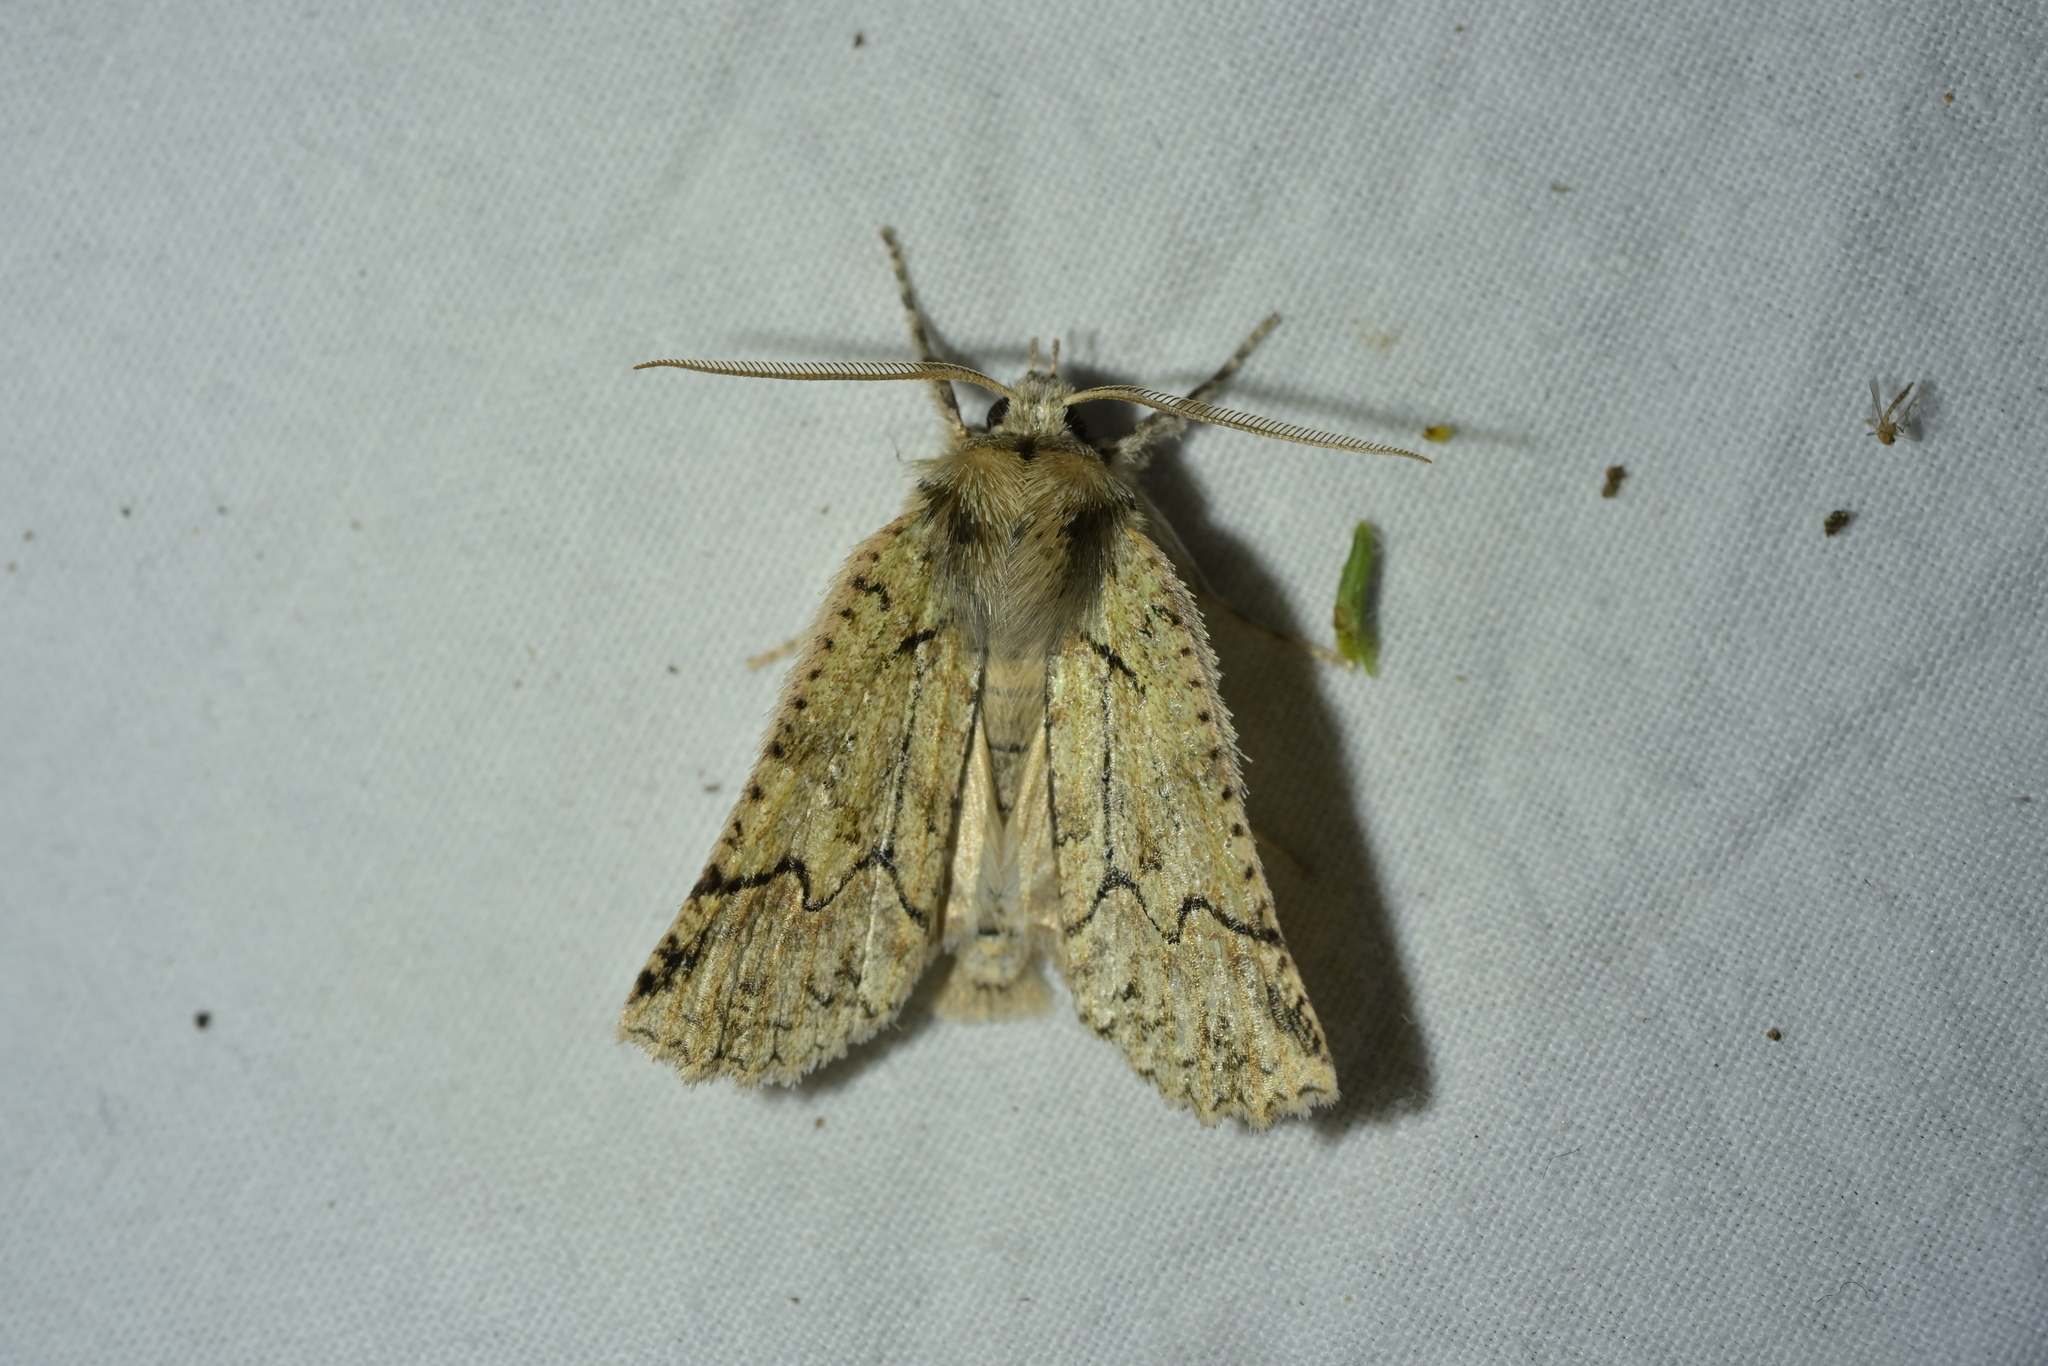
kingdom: Animalia
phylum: Arthropoda
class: Insecta
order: Lepidoptera
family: Geometridae
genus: Declana
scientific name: Declana floccosa
